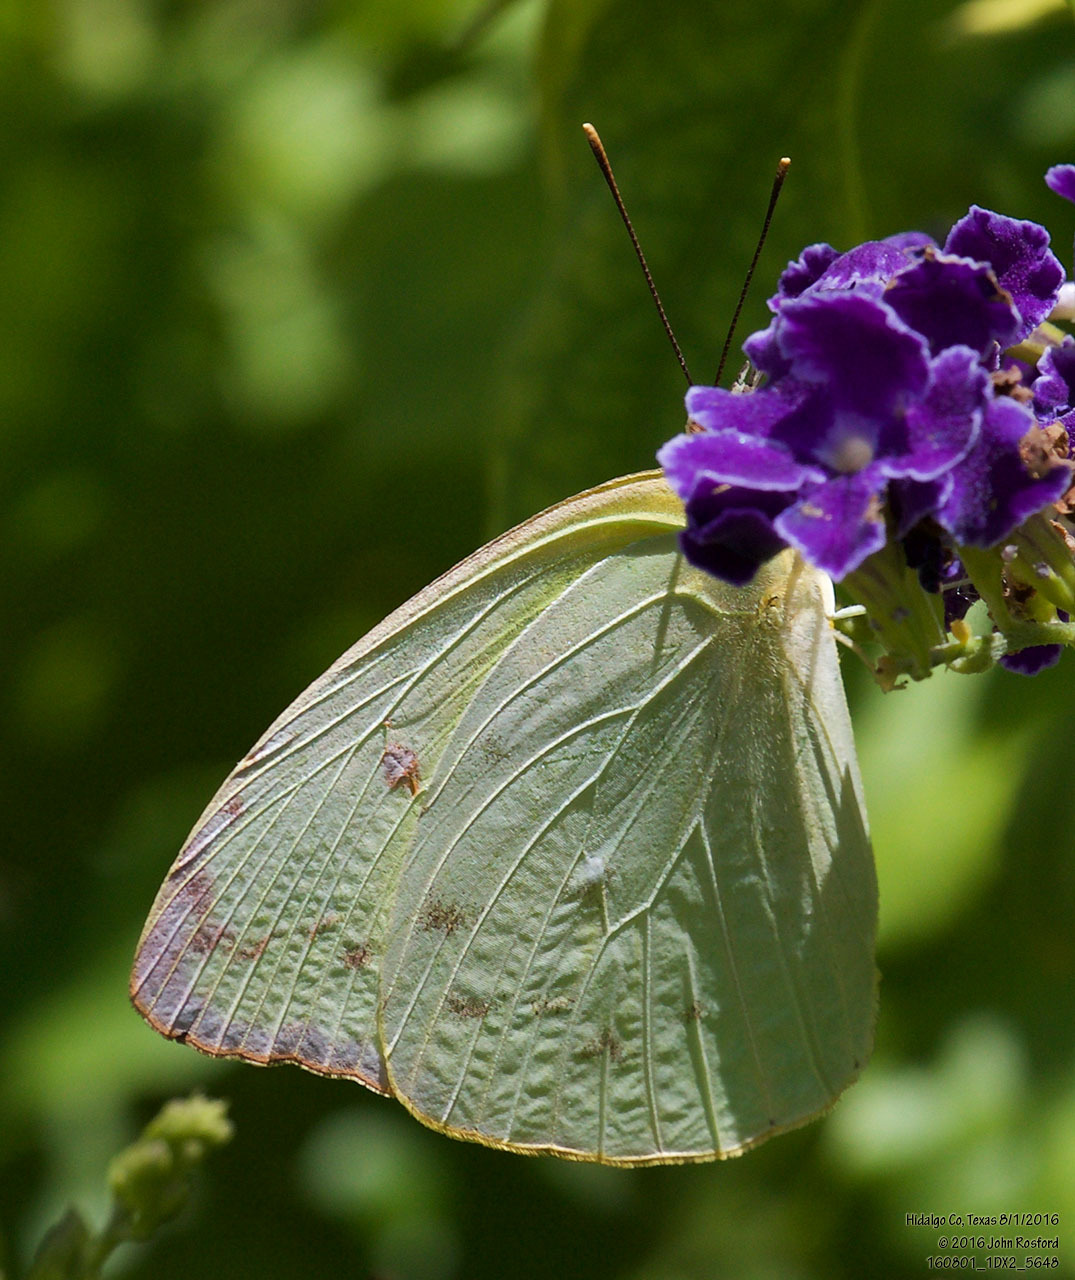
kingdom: Animalia
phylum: Arthropoda
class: Insecta
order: Lepidoptera
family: Pieridae
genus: Aphrissa
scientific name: Aphrissa statira
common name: Statira sulphur
